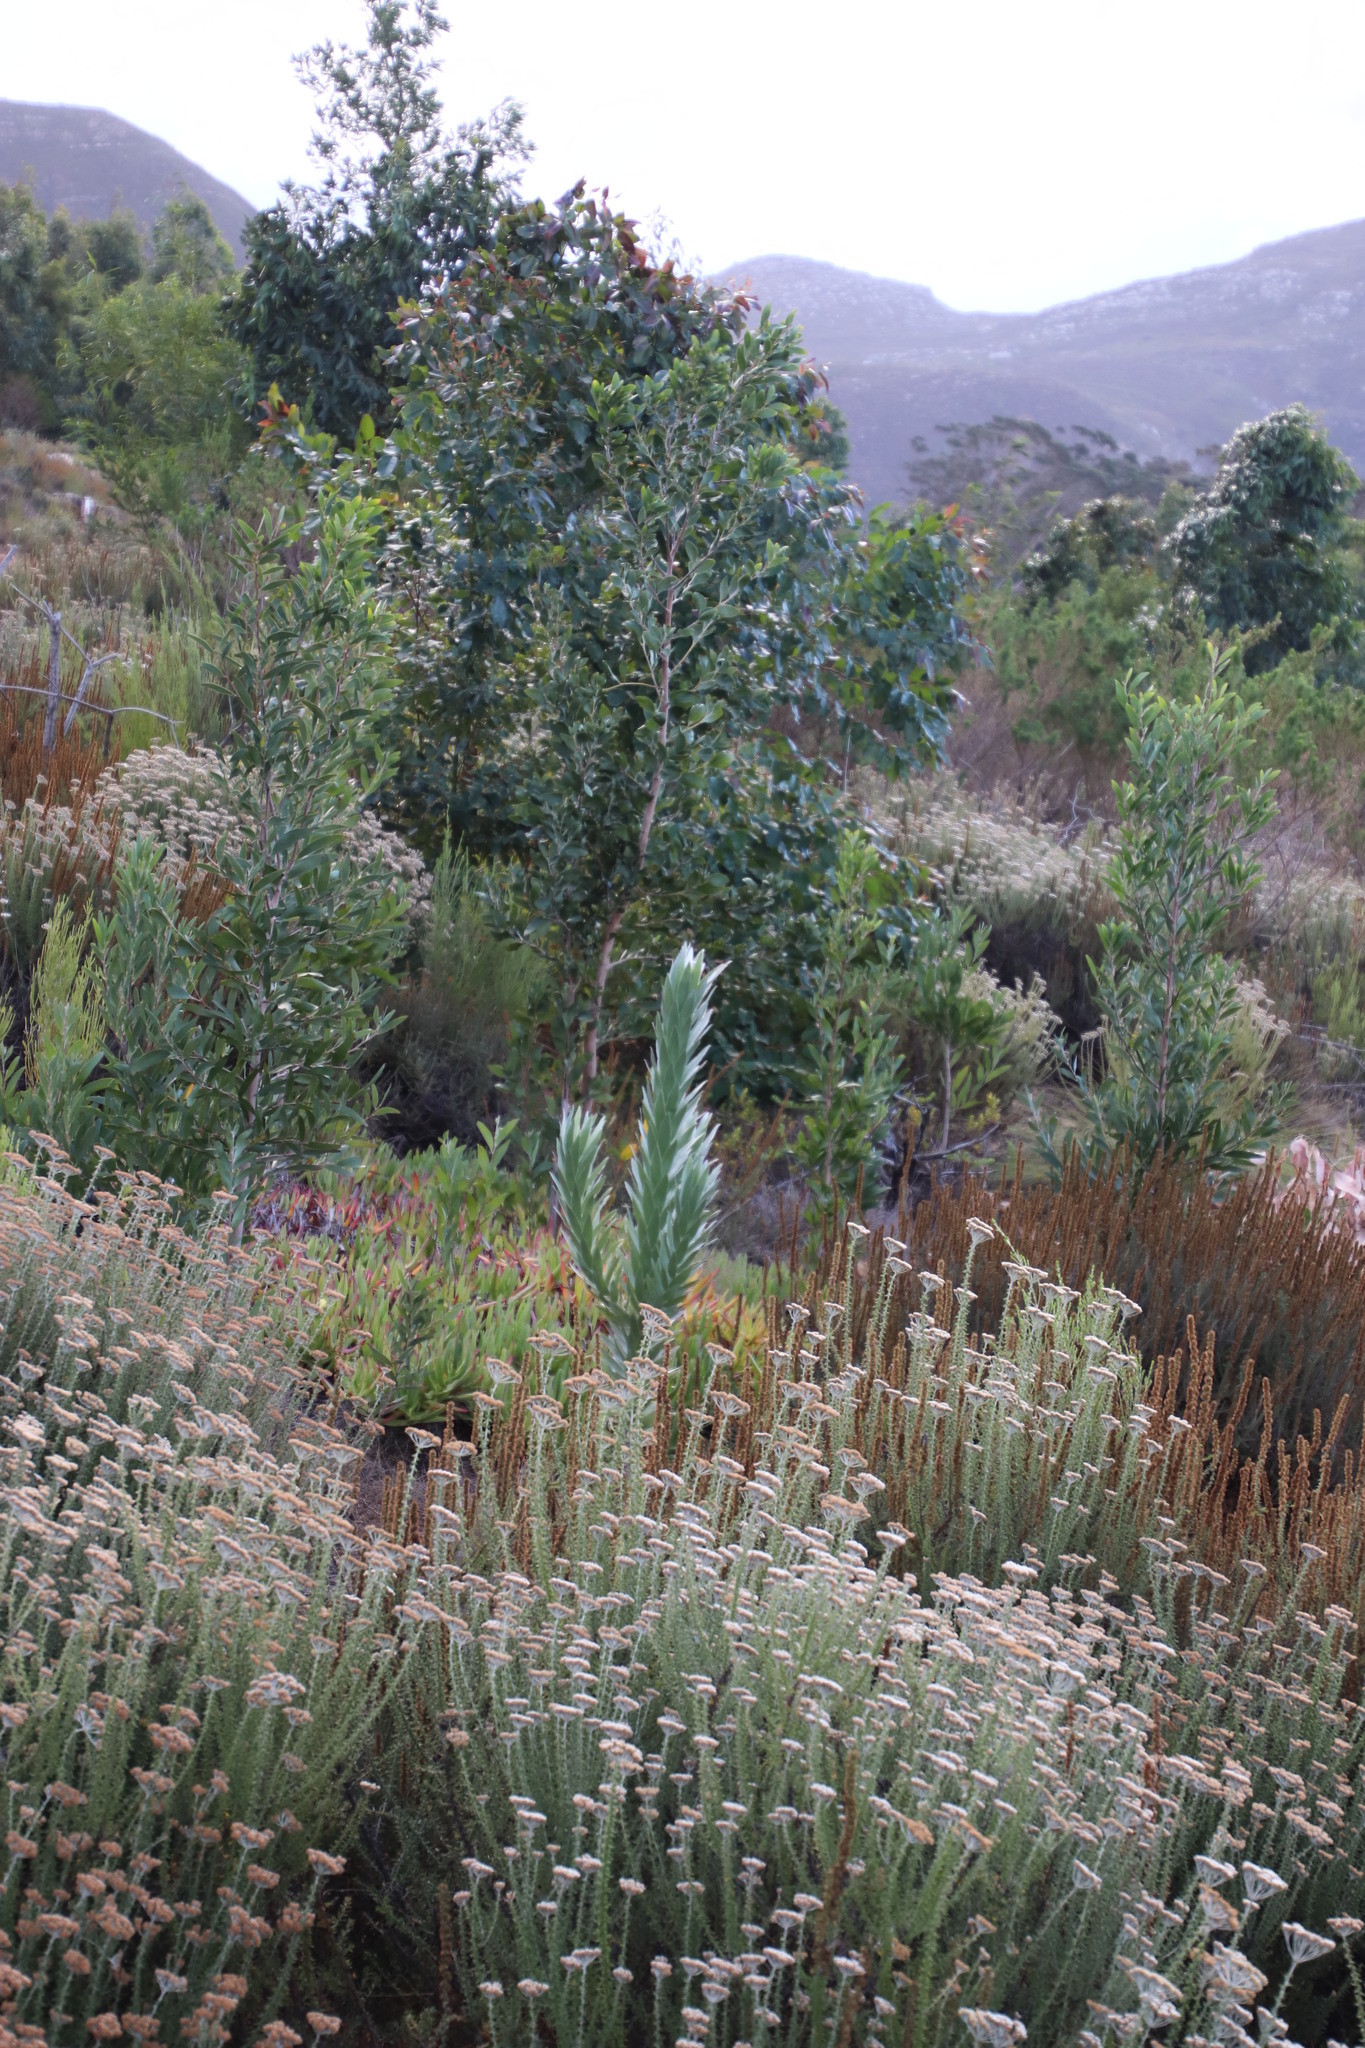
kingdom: Plantae
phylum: Tracheophyta
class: Magnoliopsida
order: Proteales
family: Proteaceae
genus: Leucadendron
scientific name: Leucadendron argenteum
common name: Cape silver tree
